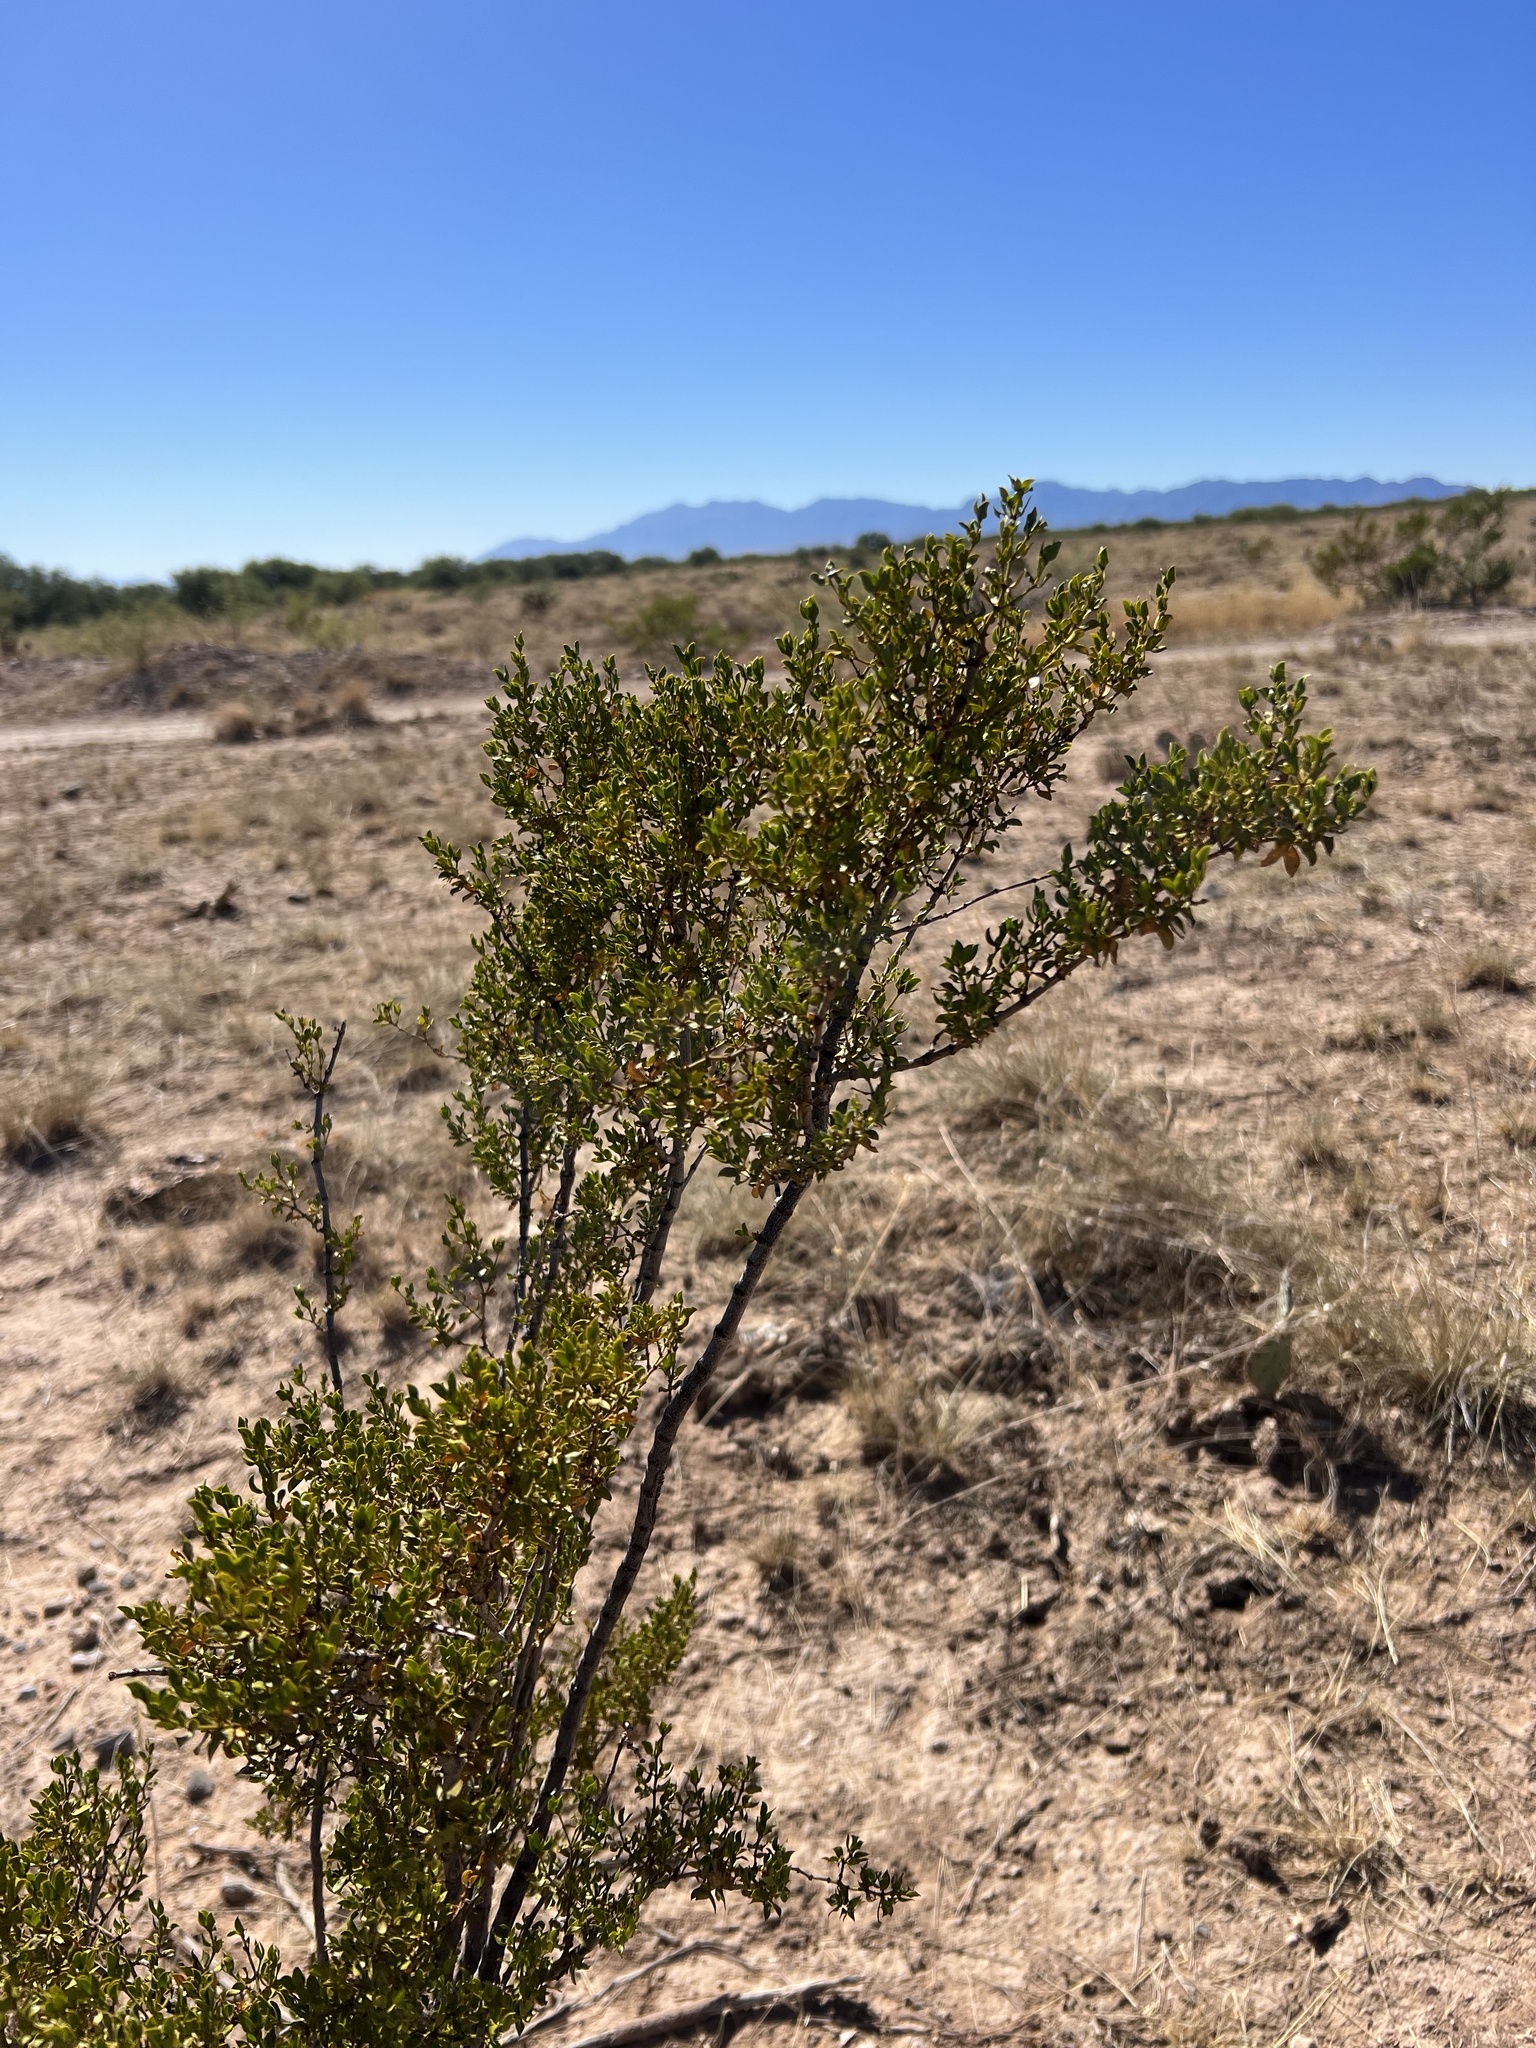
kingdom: Plantae
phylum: Tracheophyta
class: Magnoliopsida
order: Zygophyllales
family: Zygophyllaceae
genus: Larrea
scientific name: Larrea tridentata
